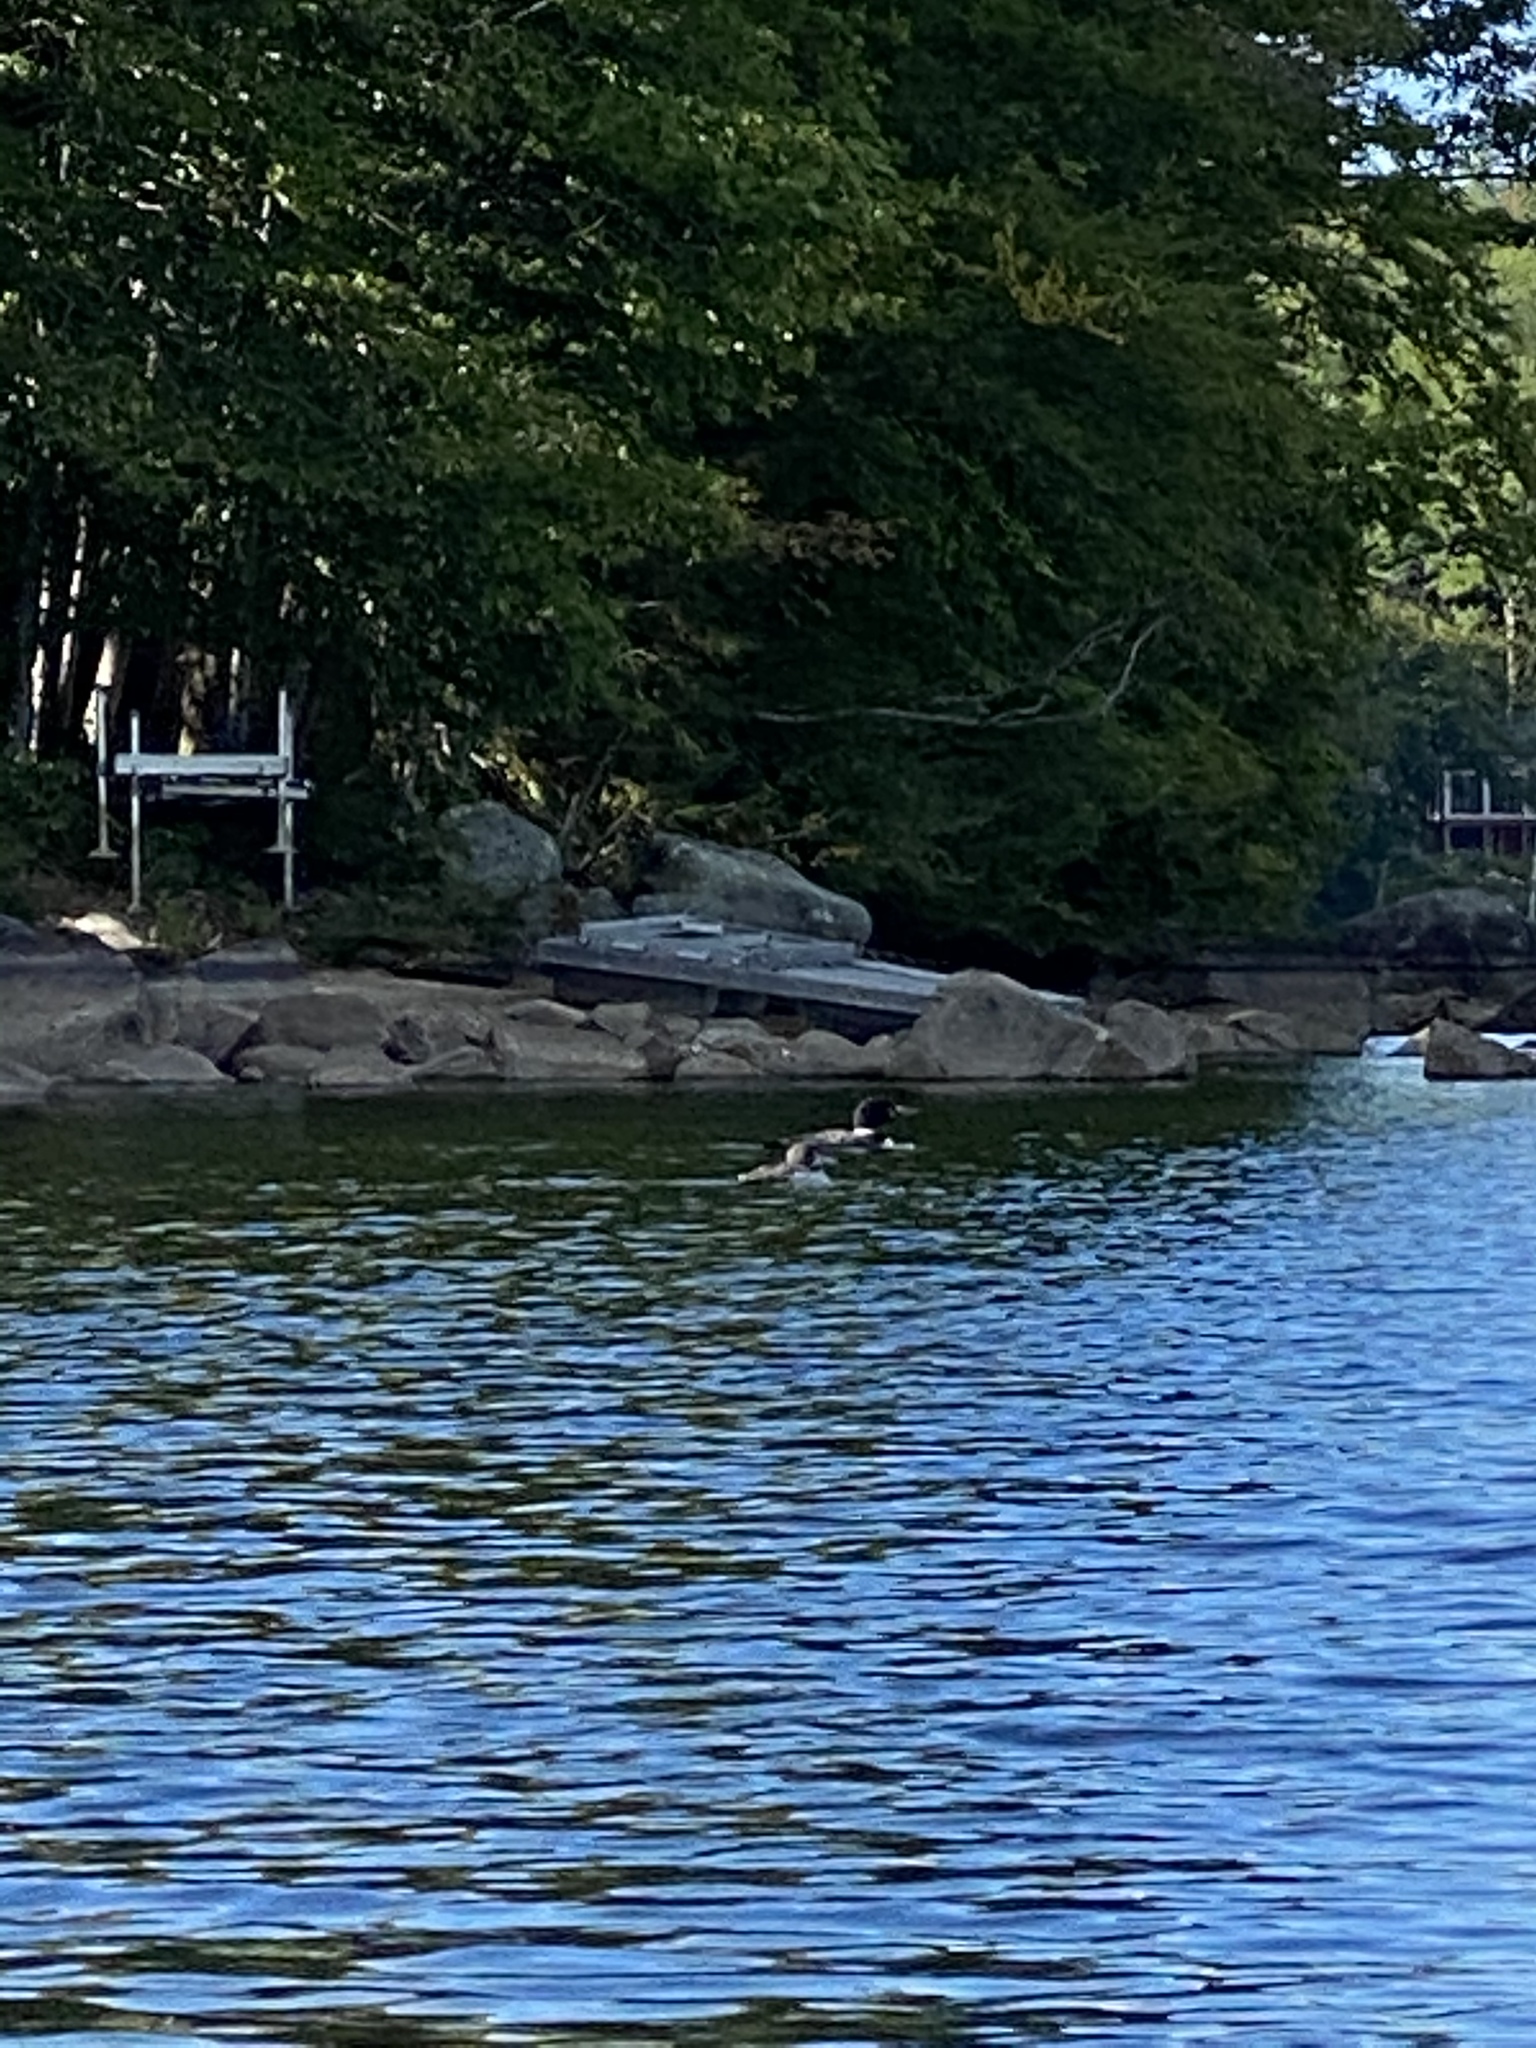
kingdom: Animalia
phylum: Chordata
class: Aves
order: Gaviiformes
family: Gaviidae
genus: Gavia
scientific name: Gavia immer
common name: Common loon
